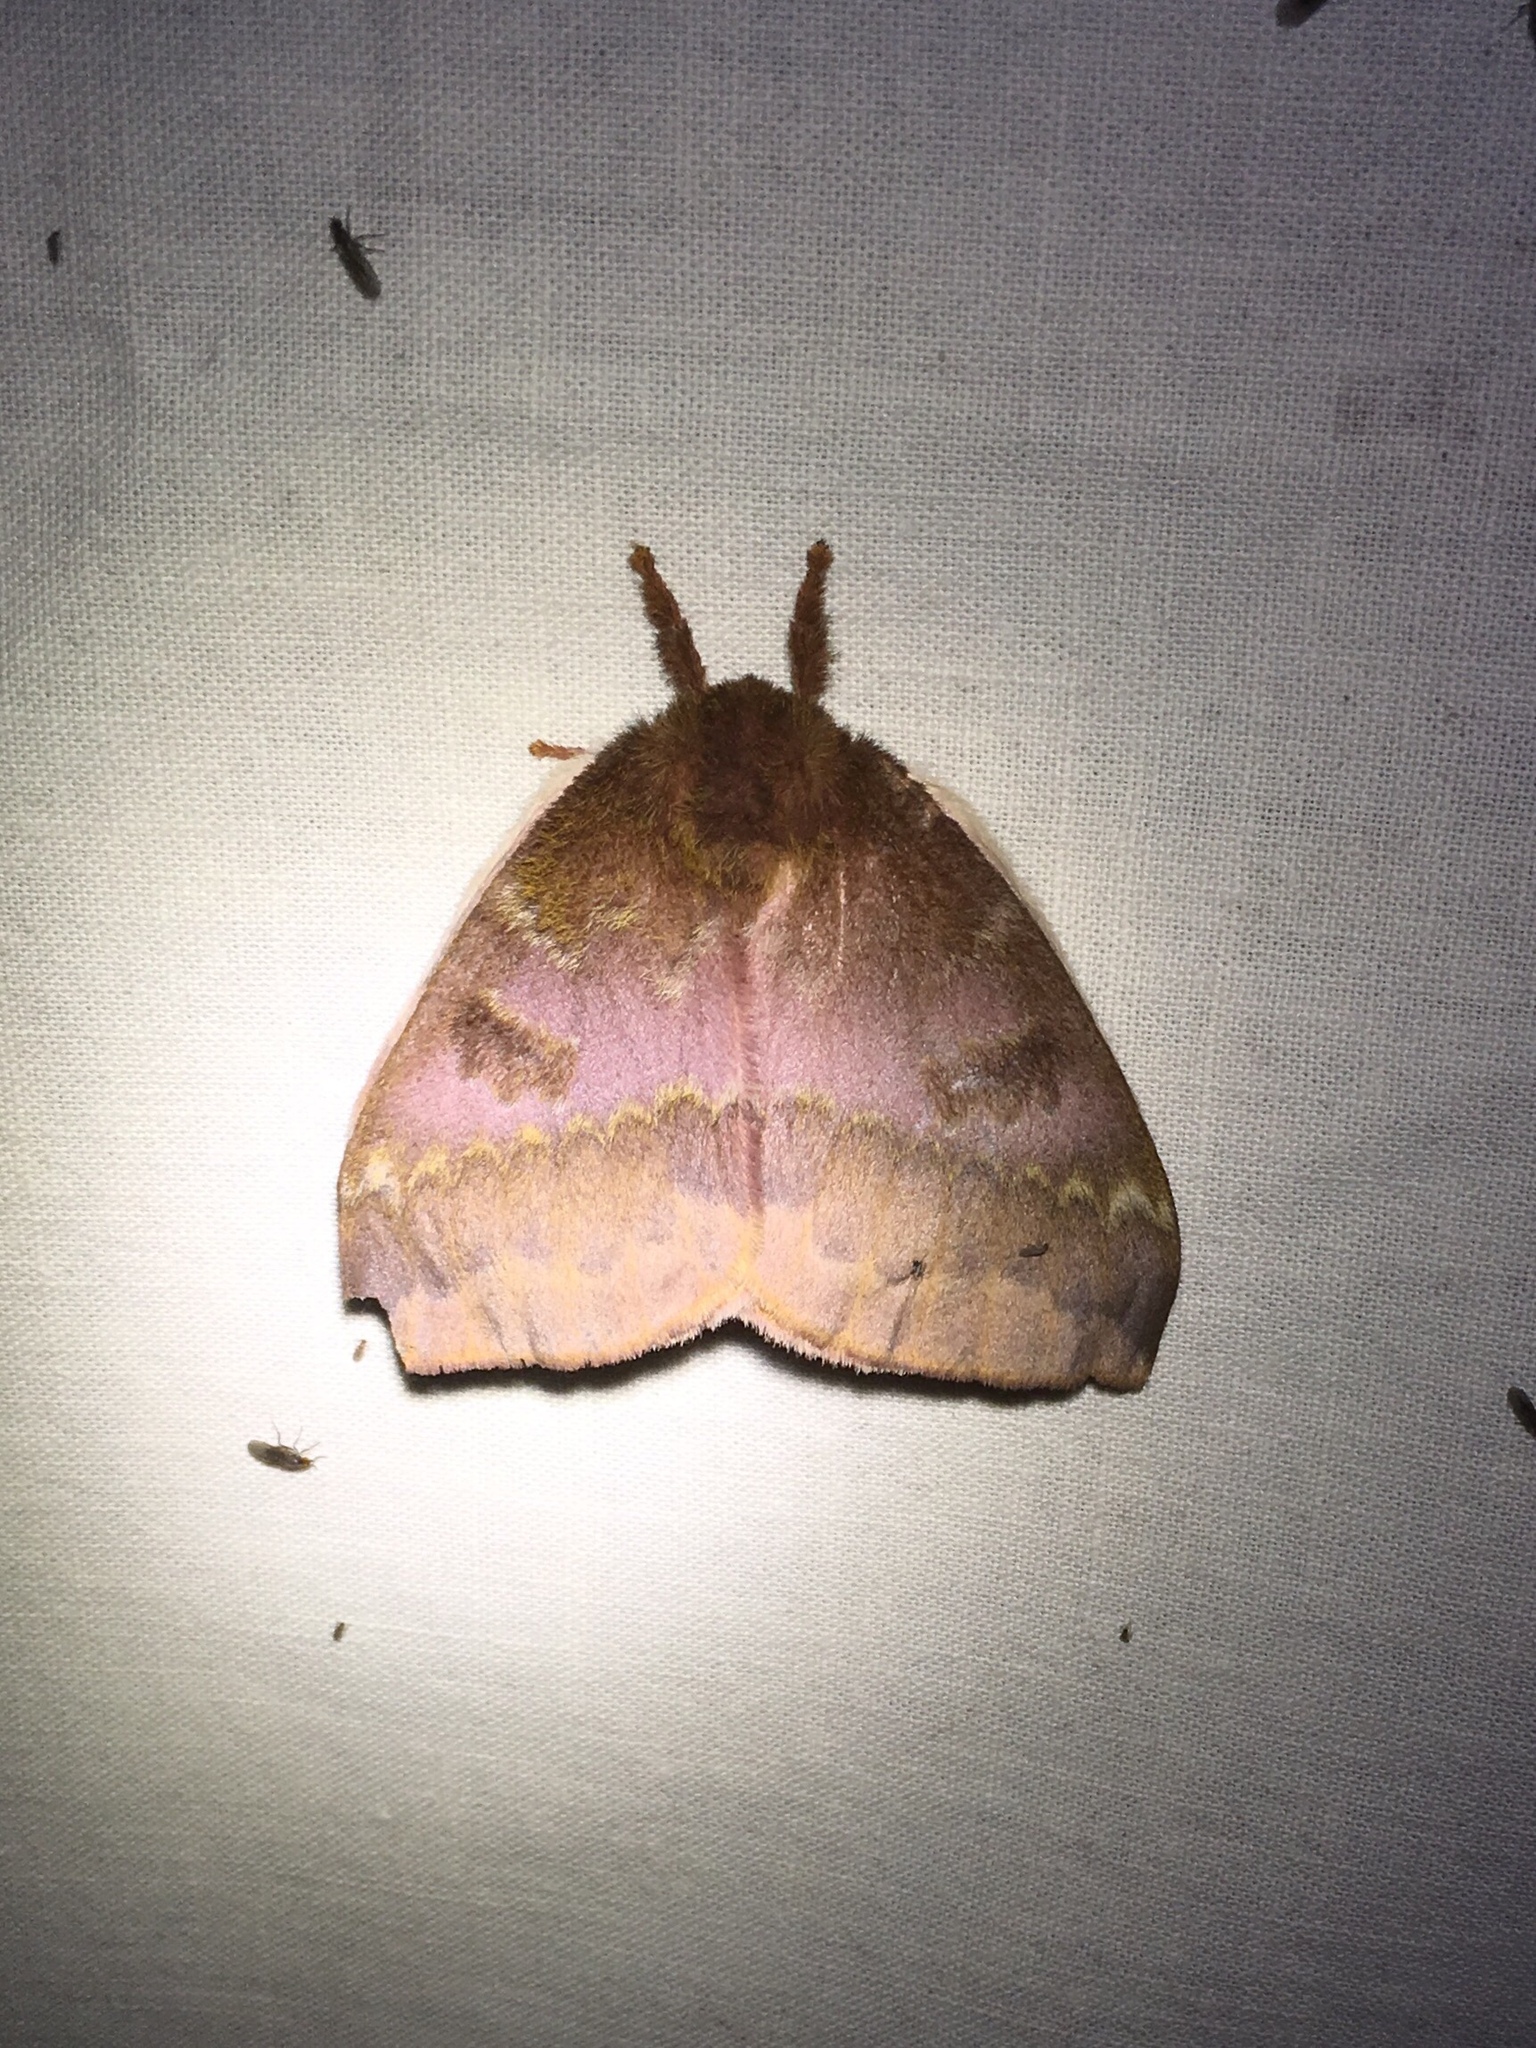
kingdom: Animalia
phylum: Arthropoda
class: Insecta
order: Lepidoptera
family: Saturniidae
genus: Automeris
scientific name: Automeris io
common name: Io moth
